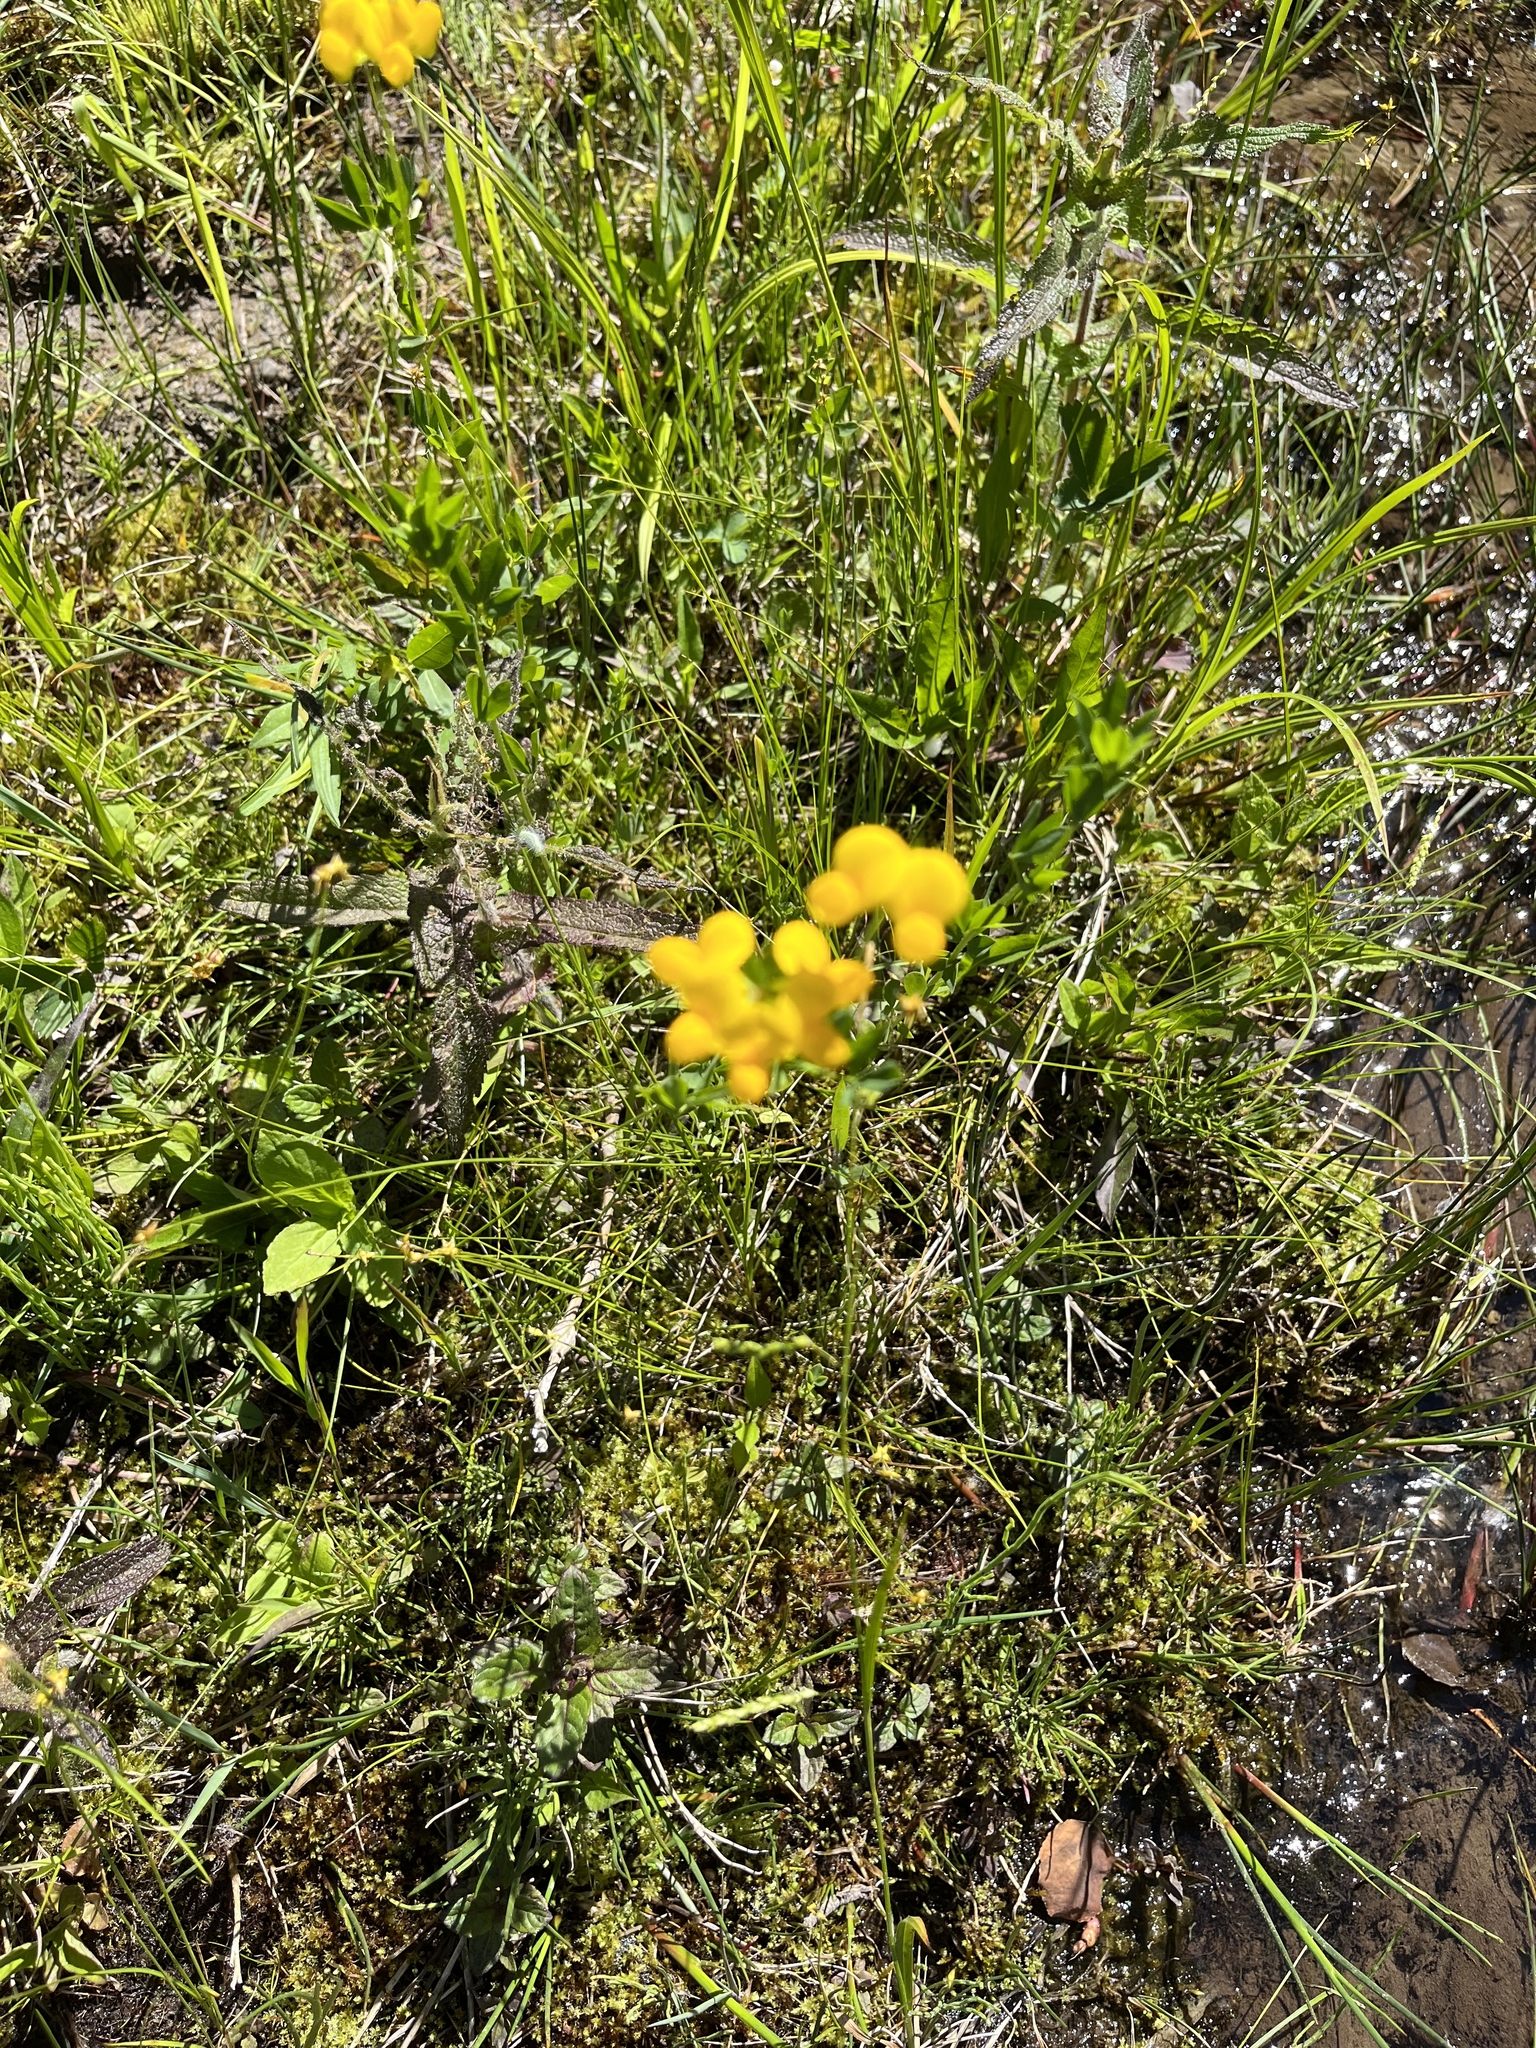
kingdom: Plantae
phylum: Tracheophyta
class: Magnoliopsida
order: Fabales
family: Fabaceae
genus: Lotus
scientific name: Lotus corniculatus
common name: Common bird's-foot-trefoil
